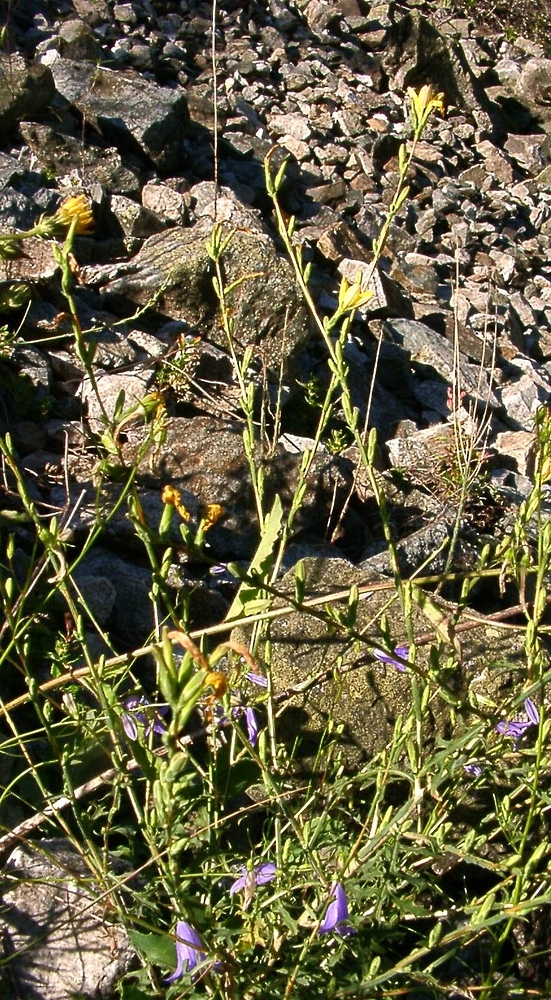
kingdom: Plantae
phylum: Tracheophyta
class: Magnoliopsida
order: Asterales
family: Asteraceae
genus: Lactuca
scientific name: Lactuca viminea
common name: Pliant lettuce
